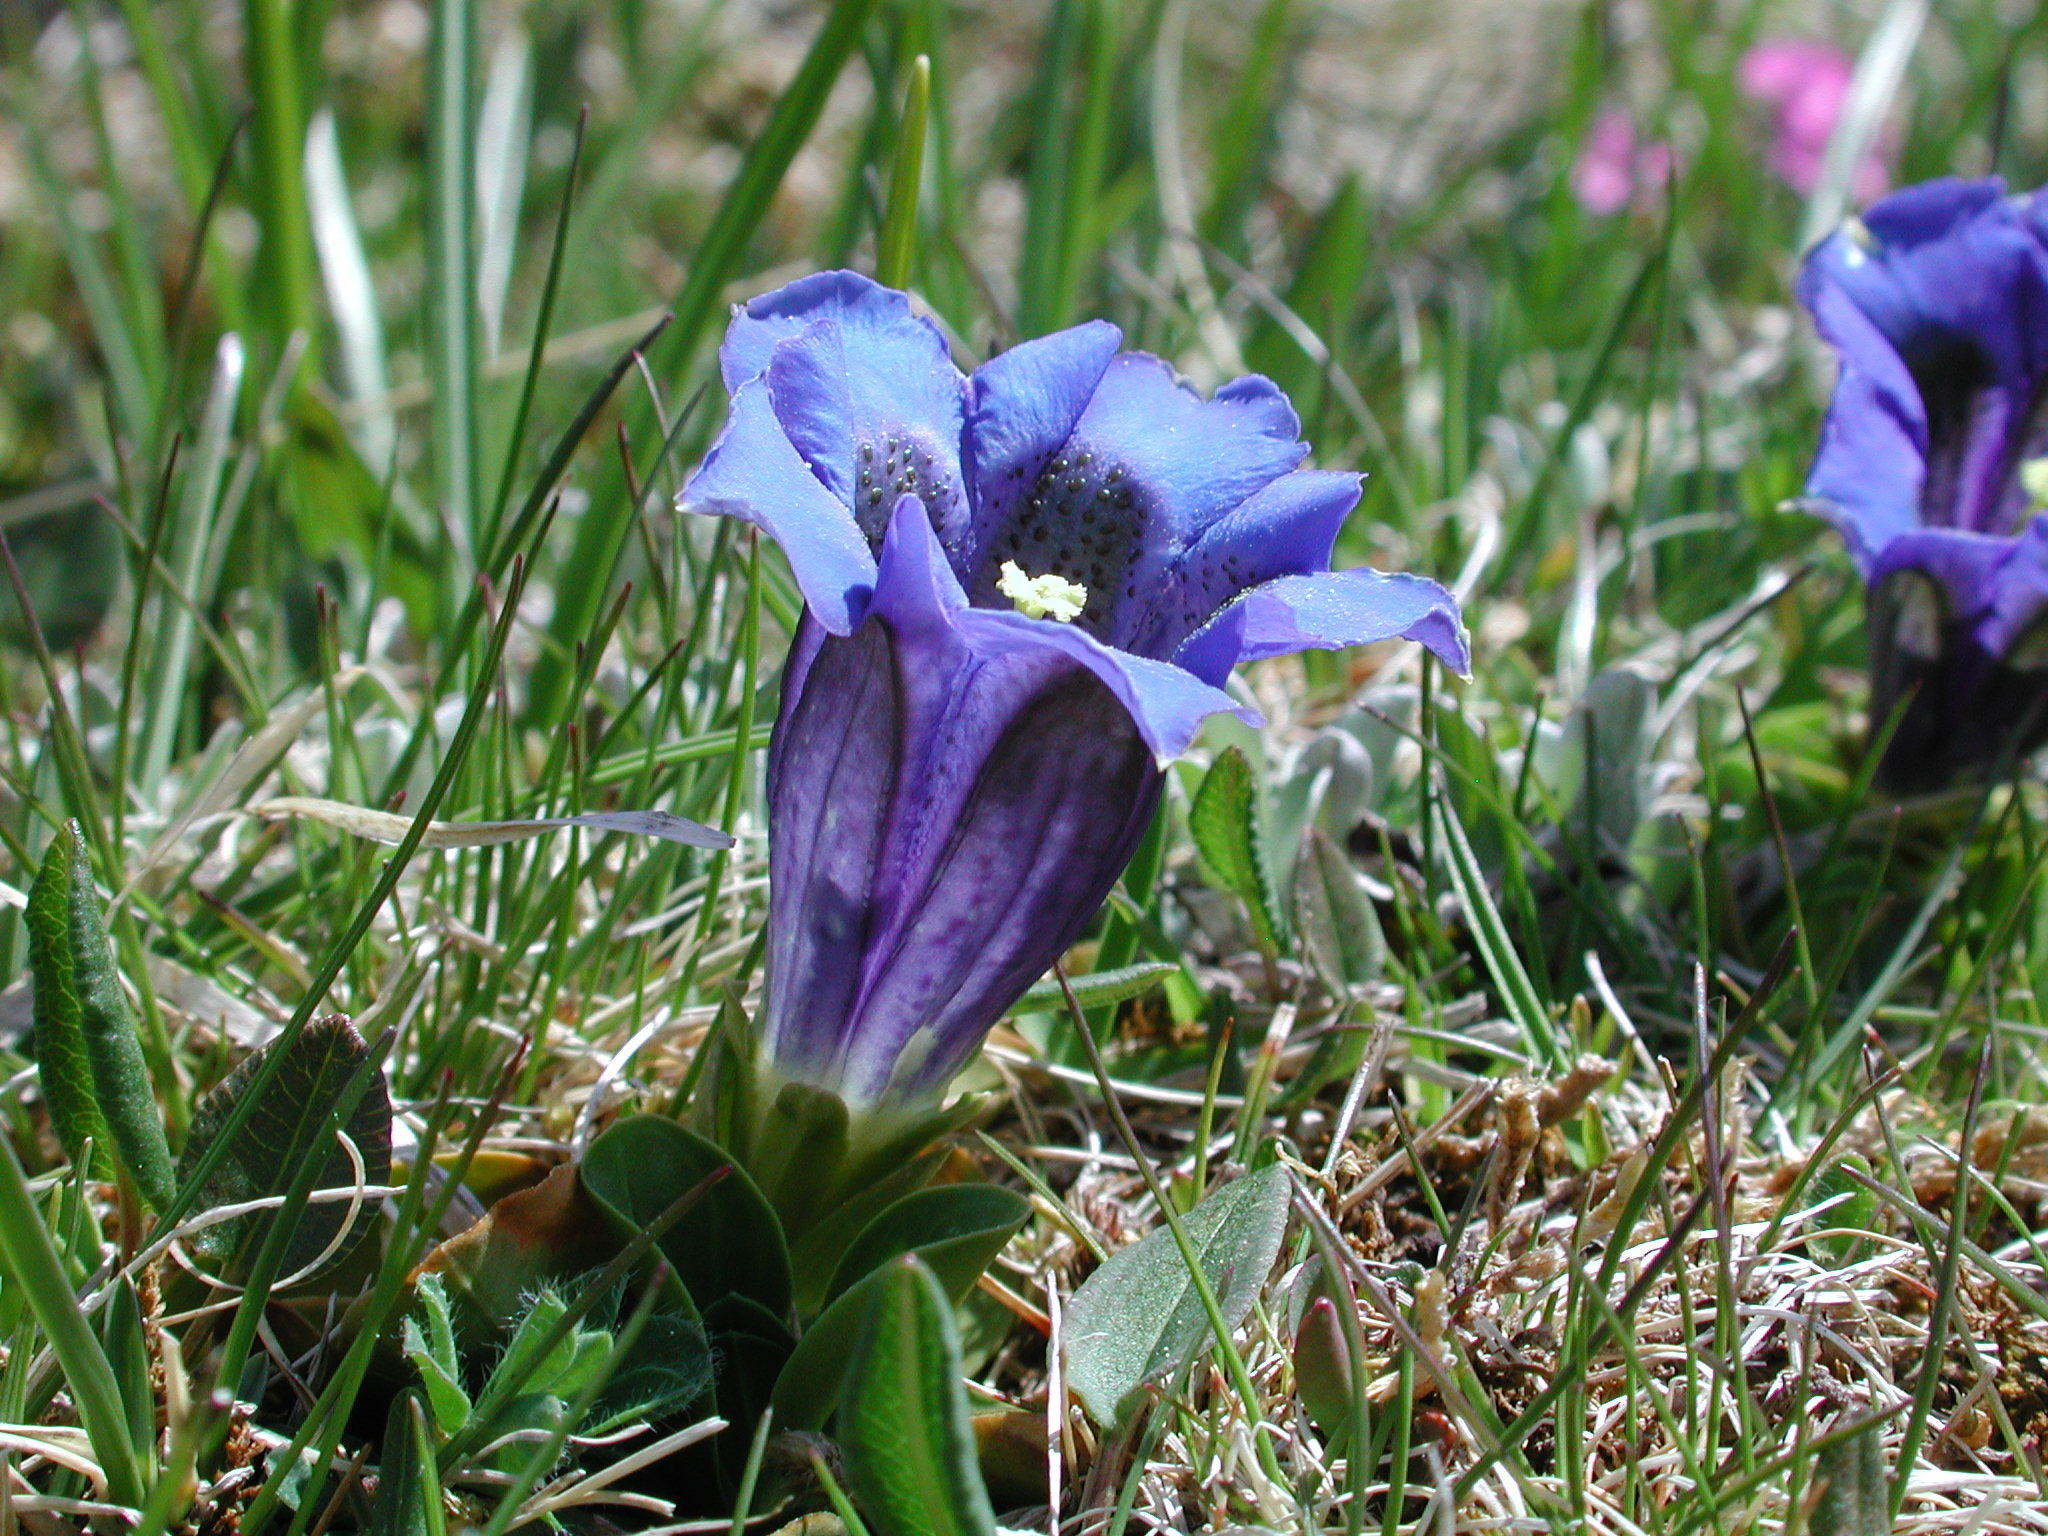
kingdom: Plantae
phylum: Tracheophyta
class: Magnoliopsida
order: Gentianales
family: Gentianaceae
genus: Gentiana
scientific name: Gentiana acaulis
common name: Trumpet gentian
